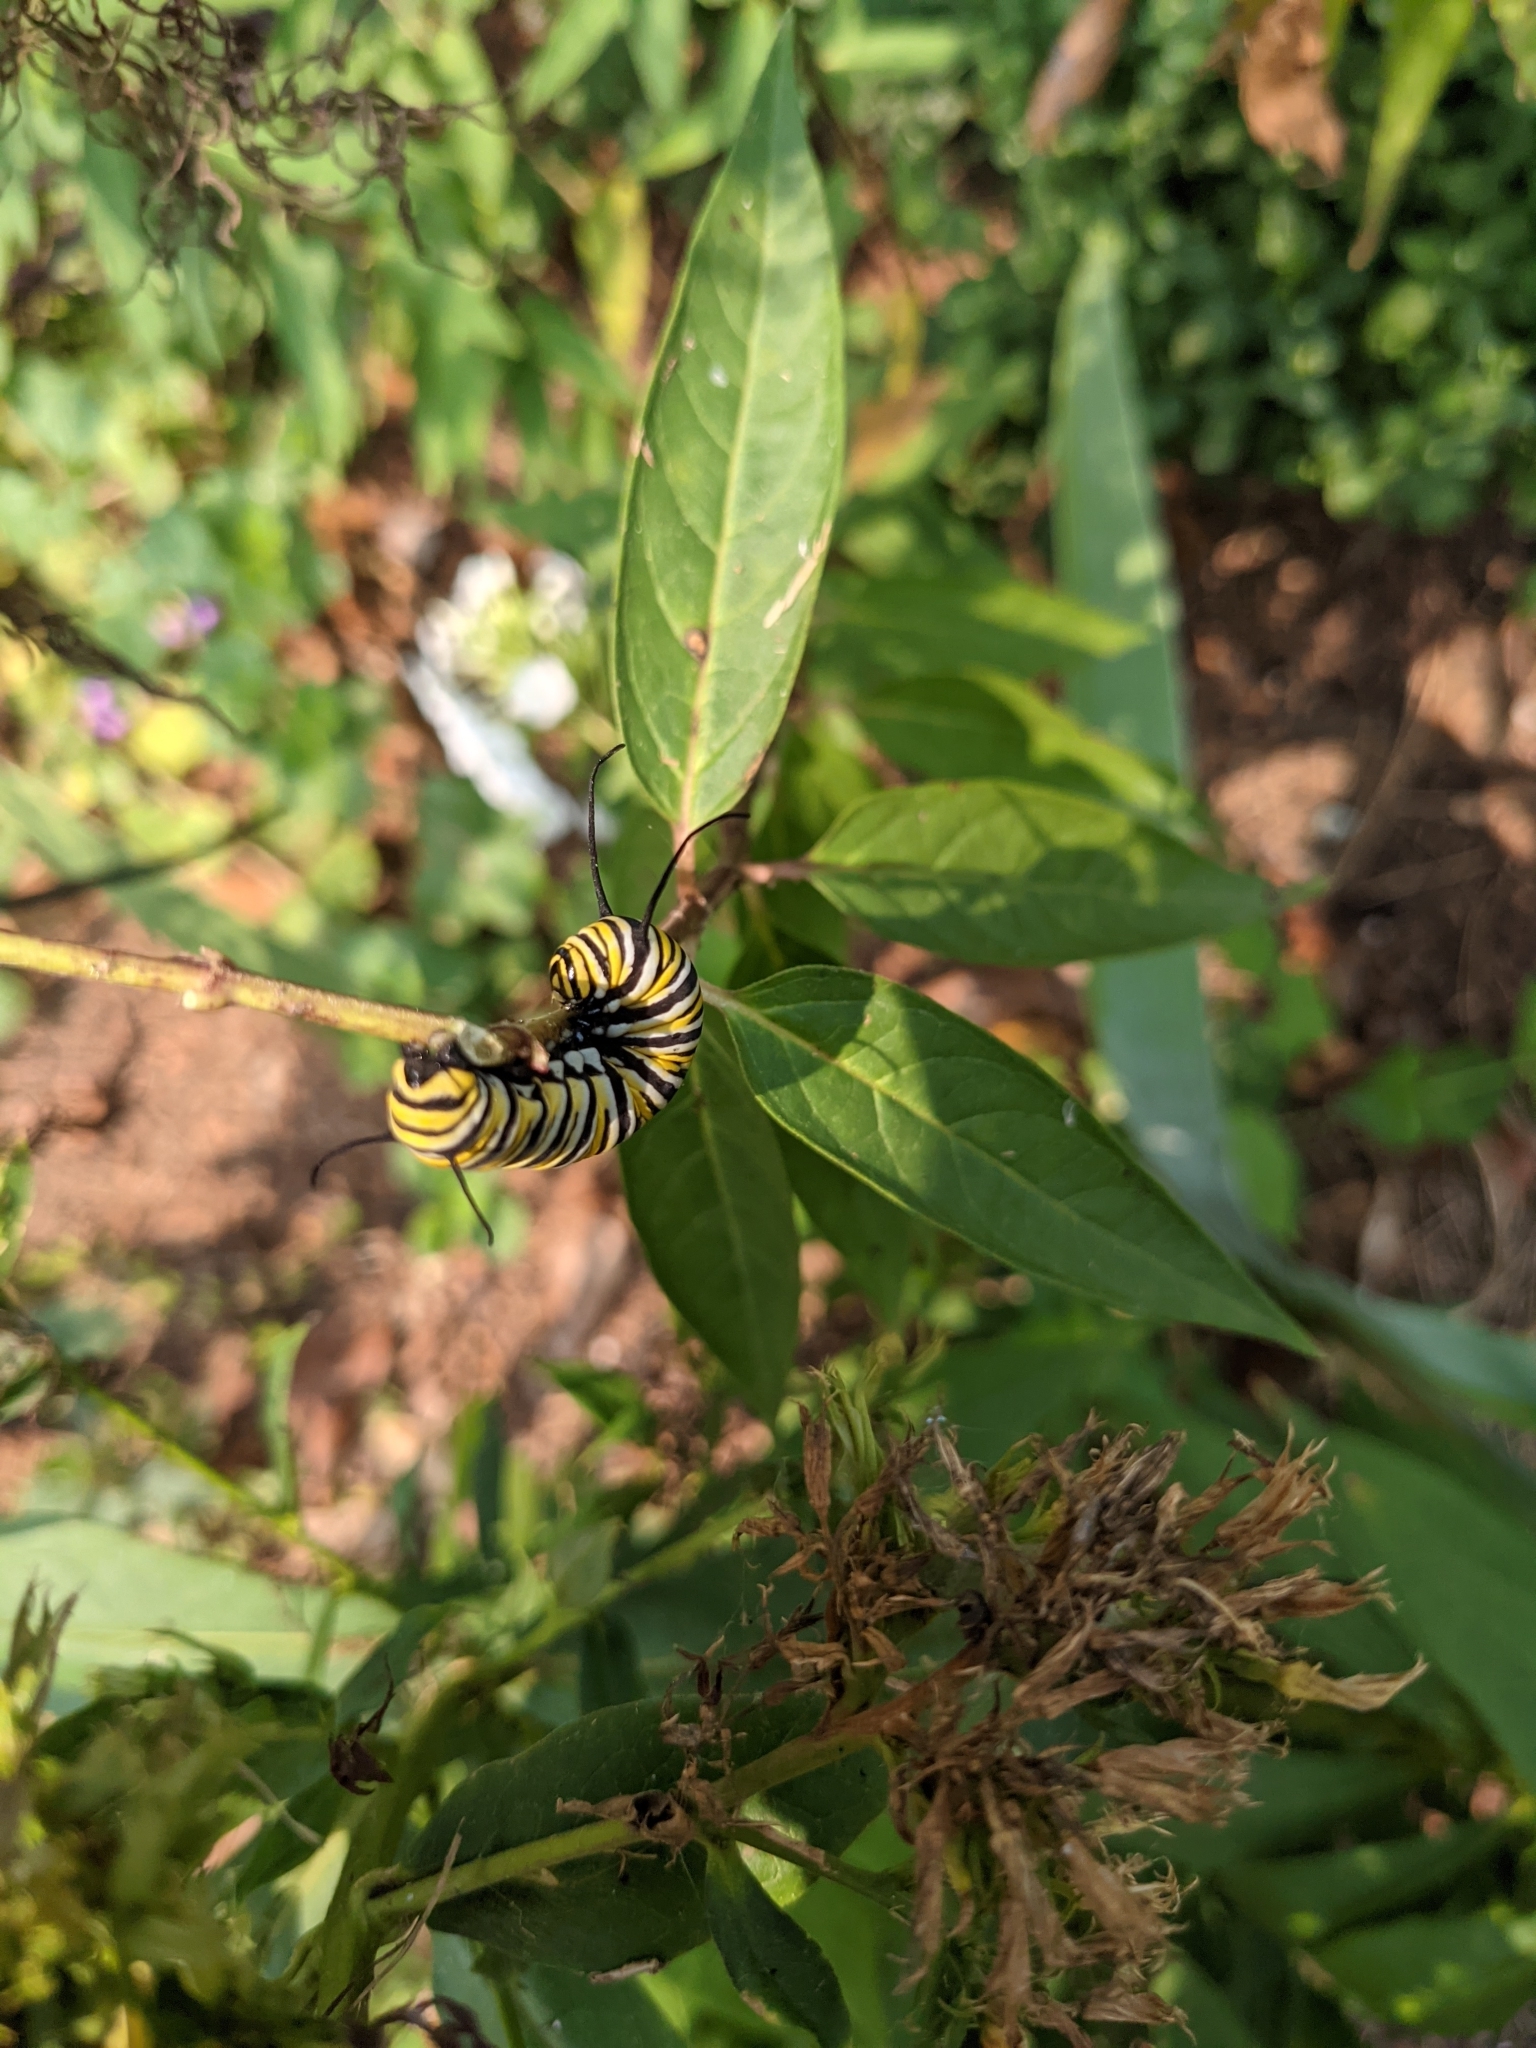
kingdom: Animalia
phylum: Arthropoda
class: Insecta
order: Lepidoptera
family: Nymphalidae
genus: Danaus
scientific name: Danaus plexippus
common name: Monarch
